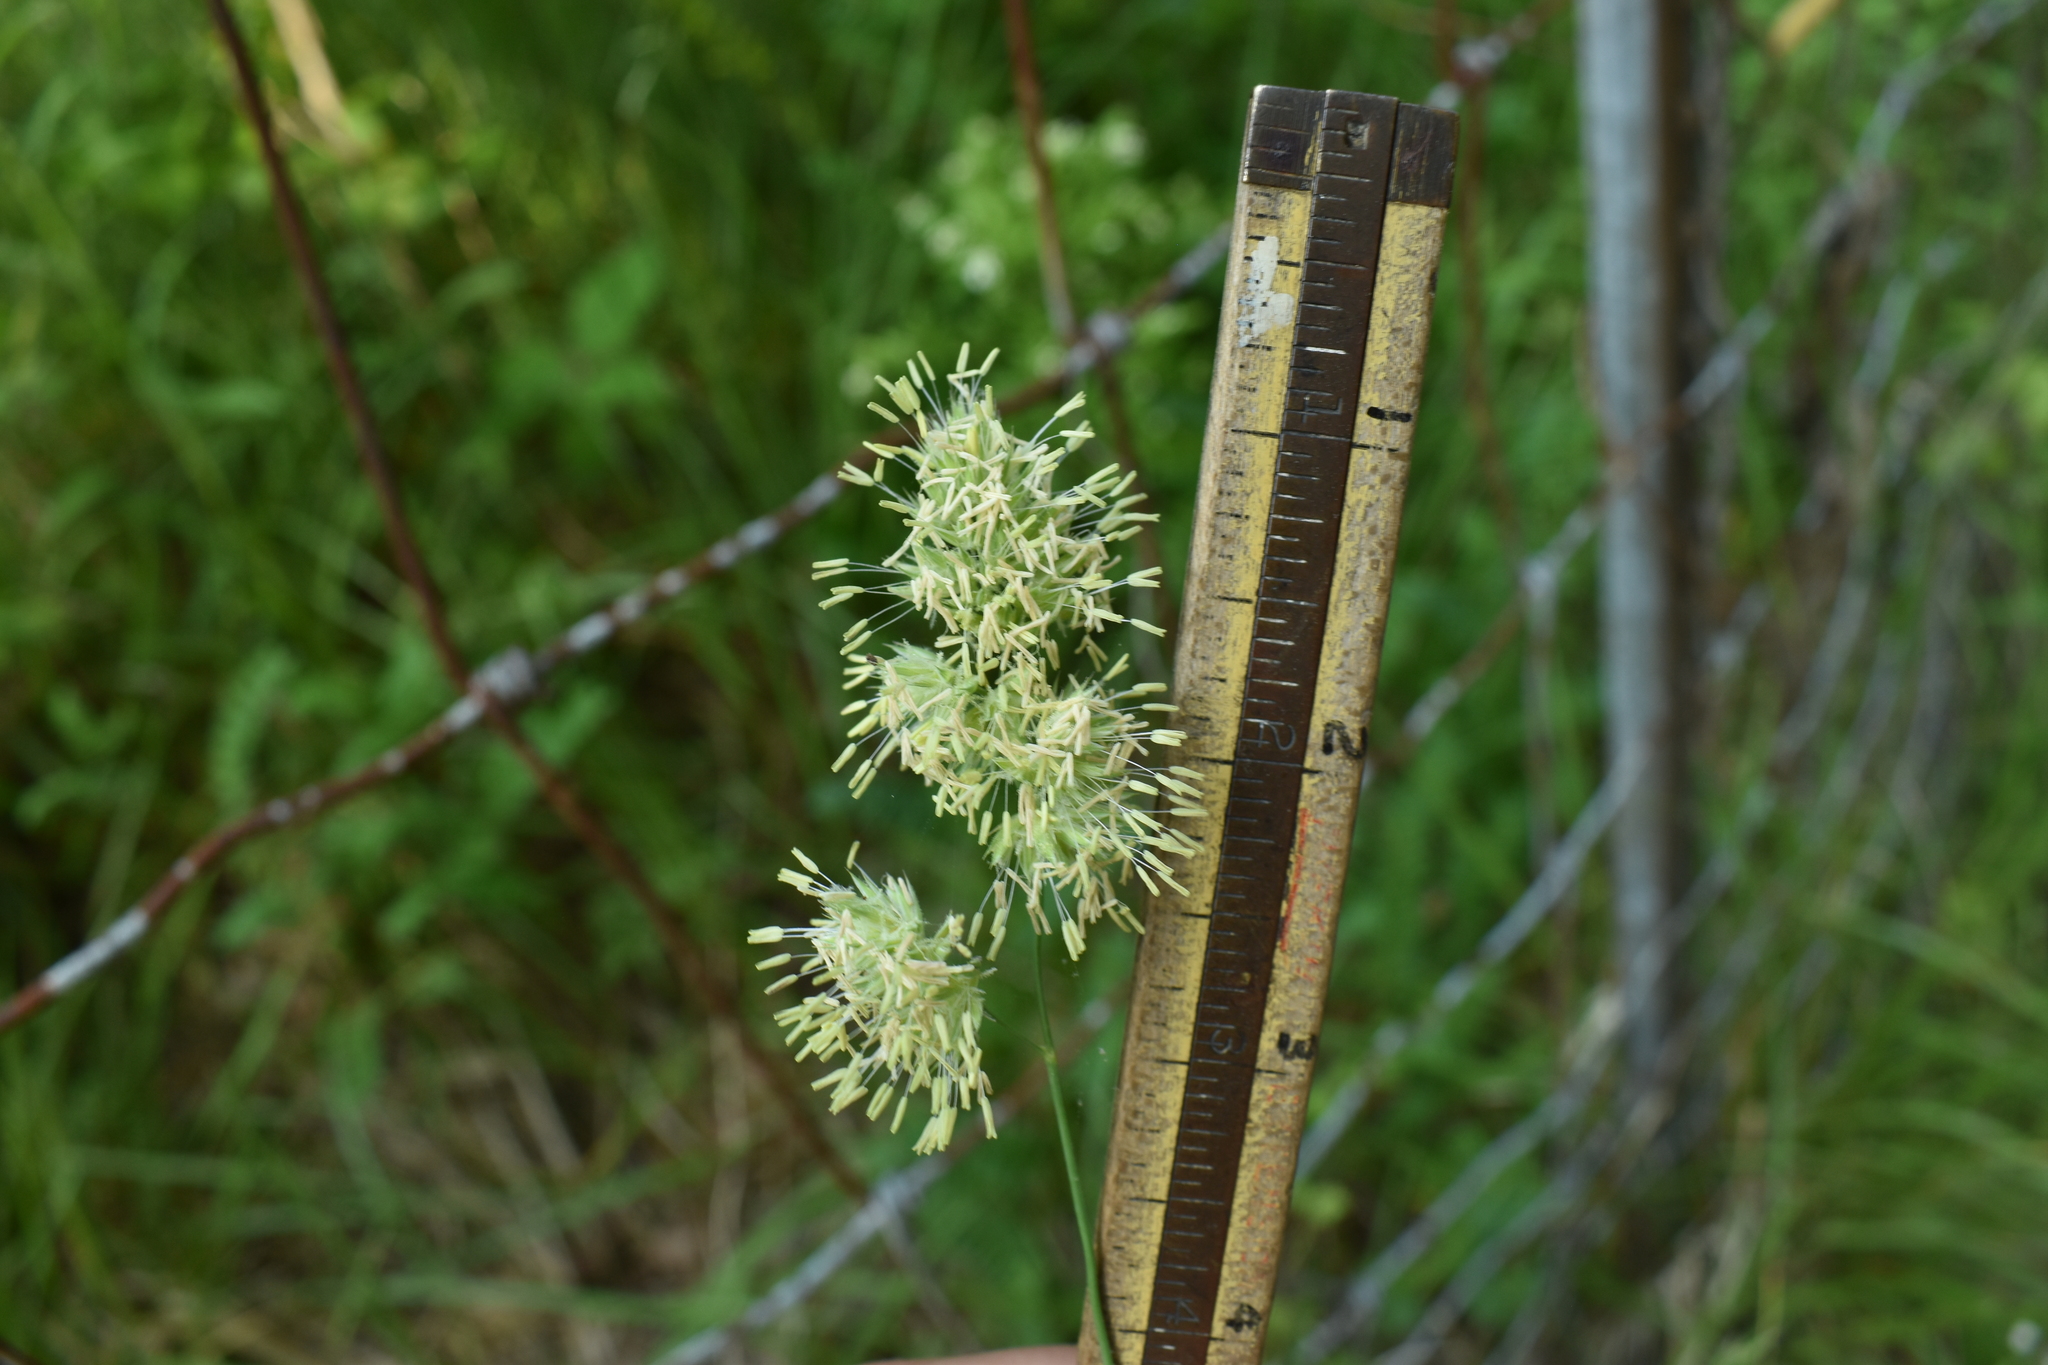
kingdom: Plantae
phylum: Tracheophyta
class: Liliopsida
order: Poales
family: Poaceae
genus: Dactylis
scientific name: Dactylis glomerata
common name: Orchardgrass
